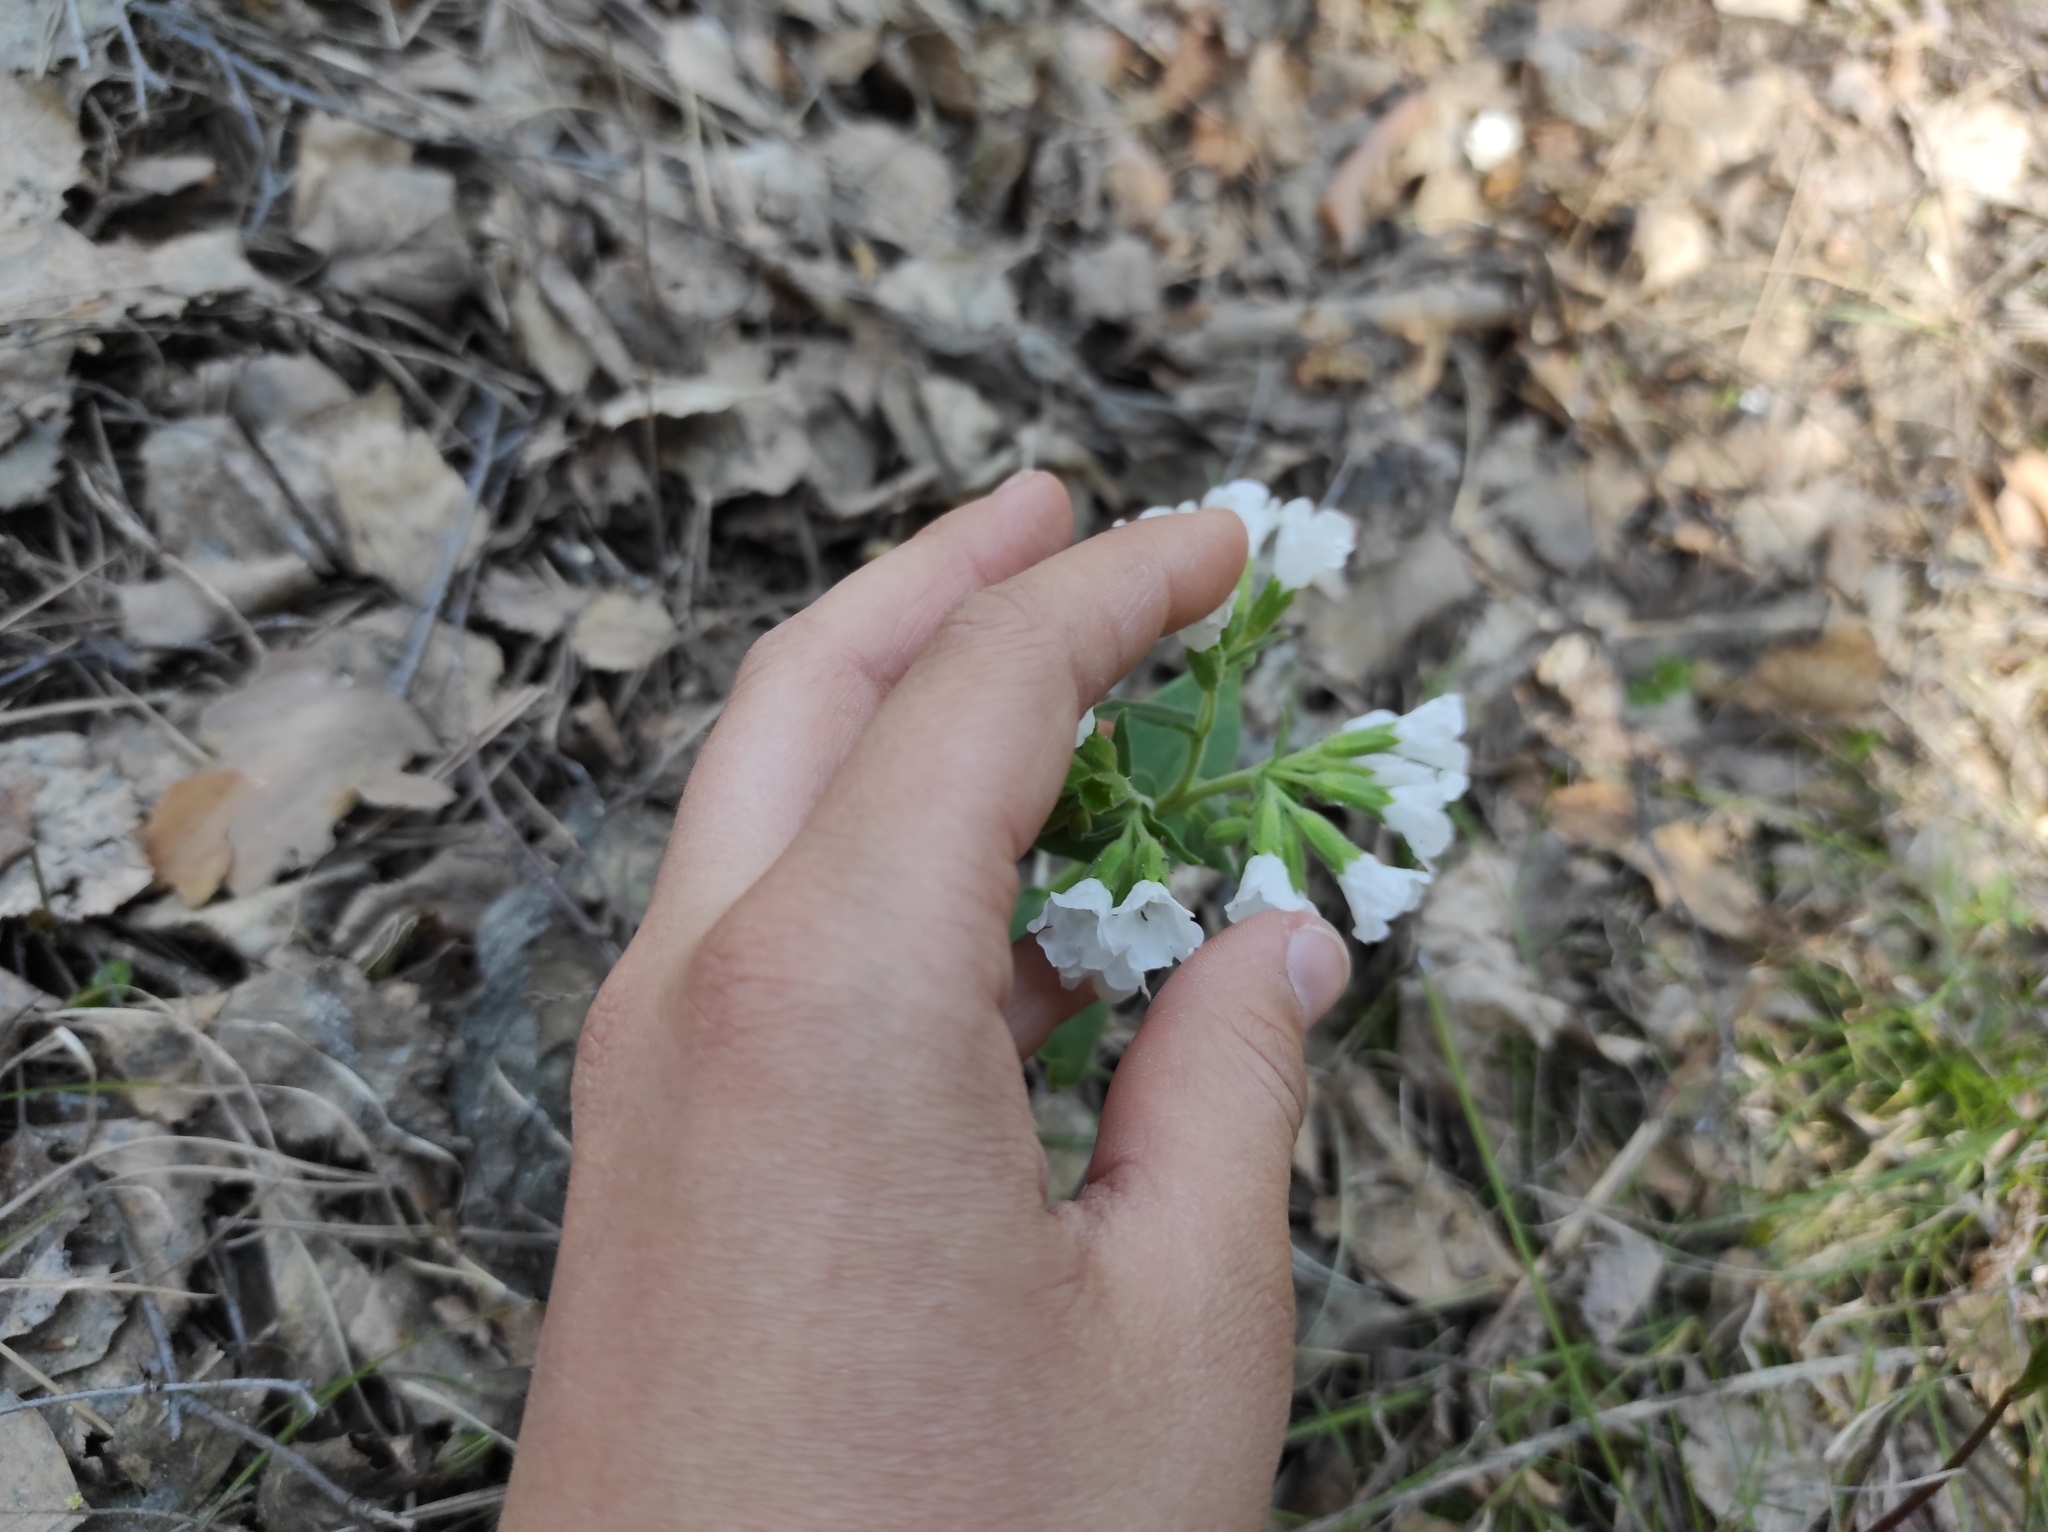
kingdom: Plantae
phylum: Tracheophyta
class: Magnoliopsida
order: Boraginales
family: Boraginaceae
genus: Pulmonaria
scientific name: Pulmonaria mollis
